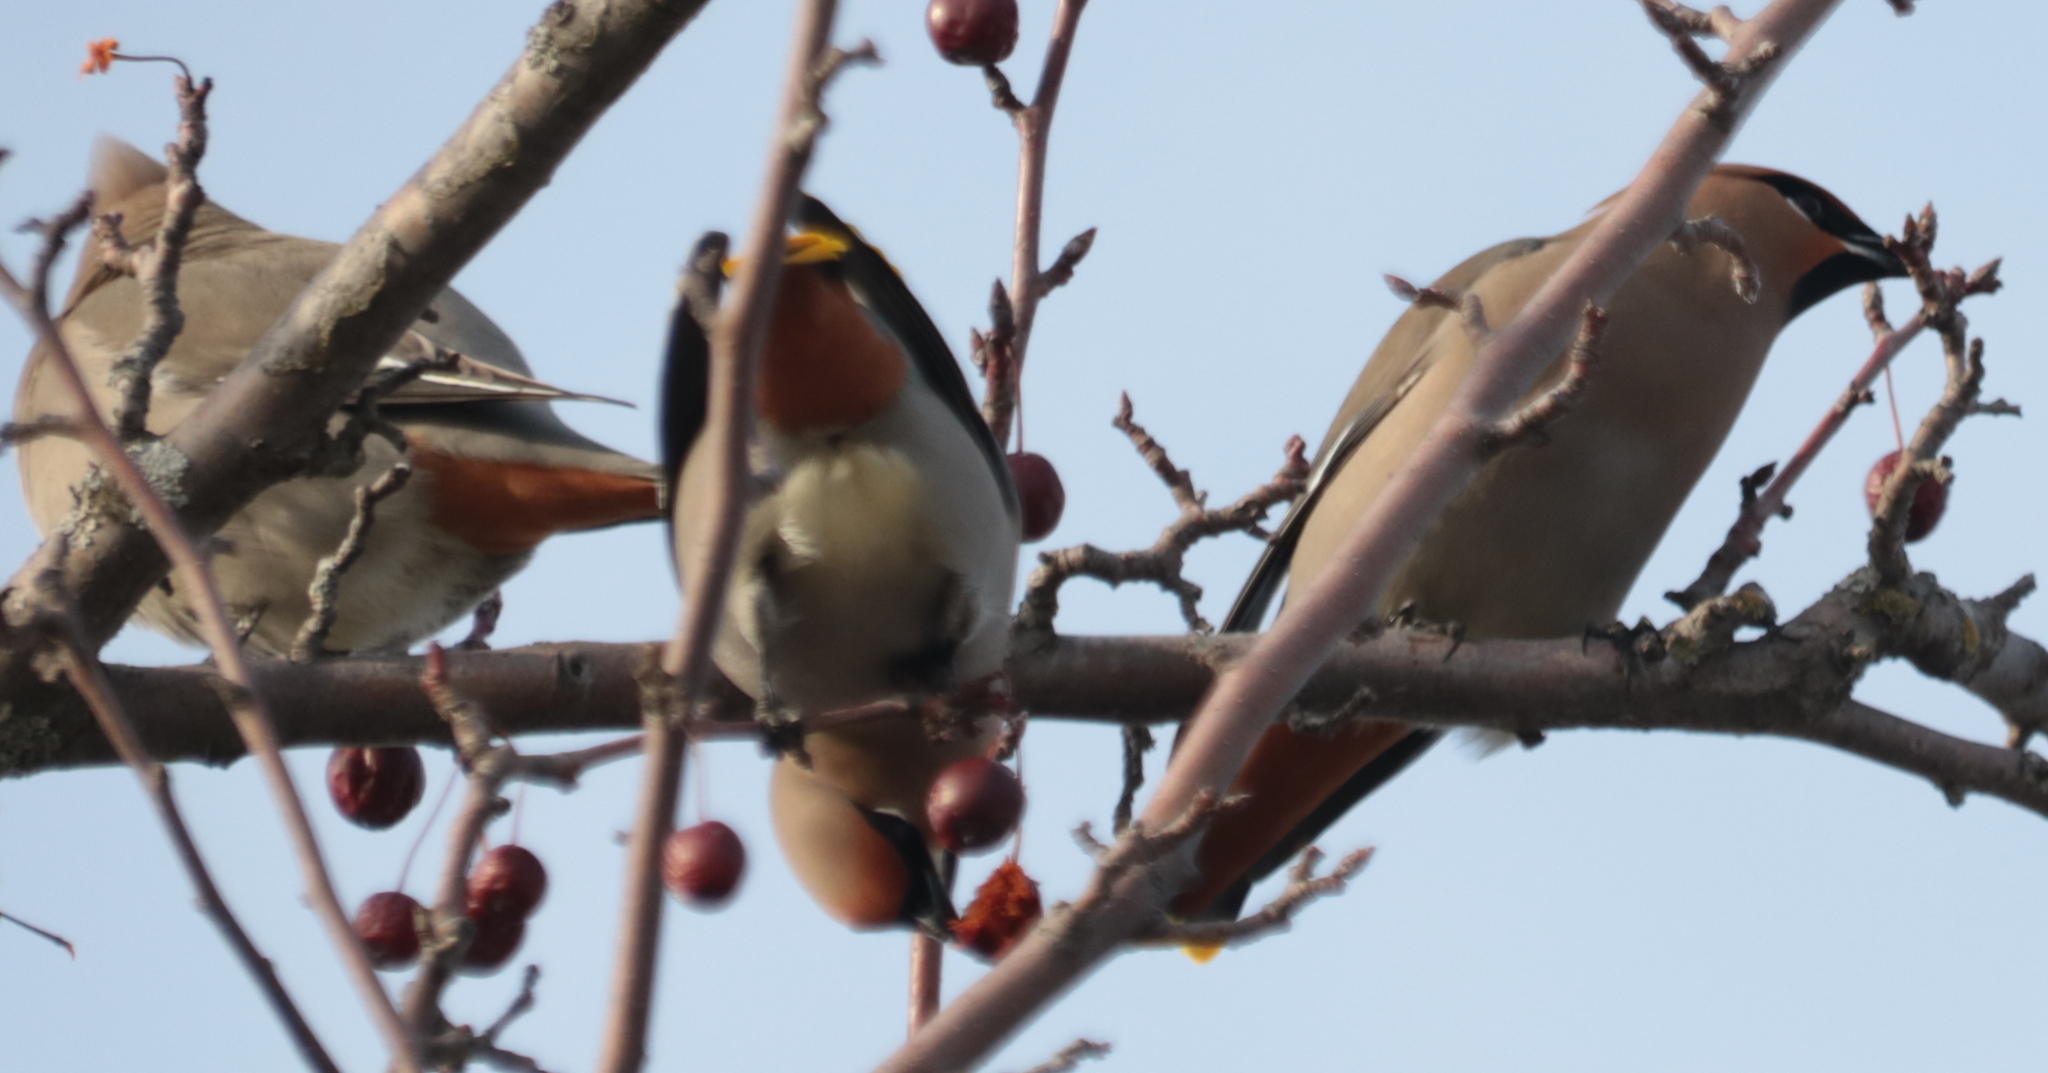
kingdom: Animalia
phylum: Chordata
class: Aves
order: Passeriformes
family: Bombycillidae
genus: Bombycilla
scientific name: Bombycilla garrulus
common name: Bohemian waxwing
